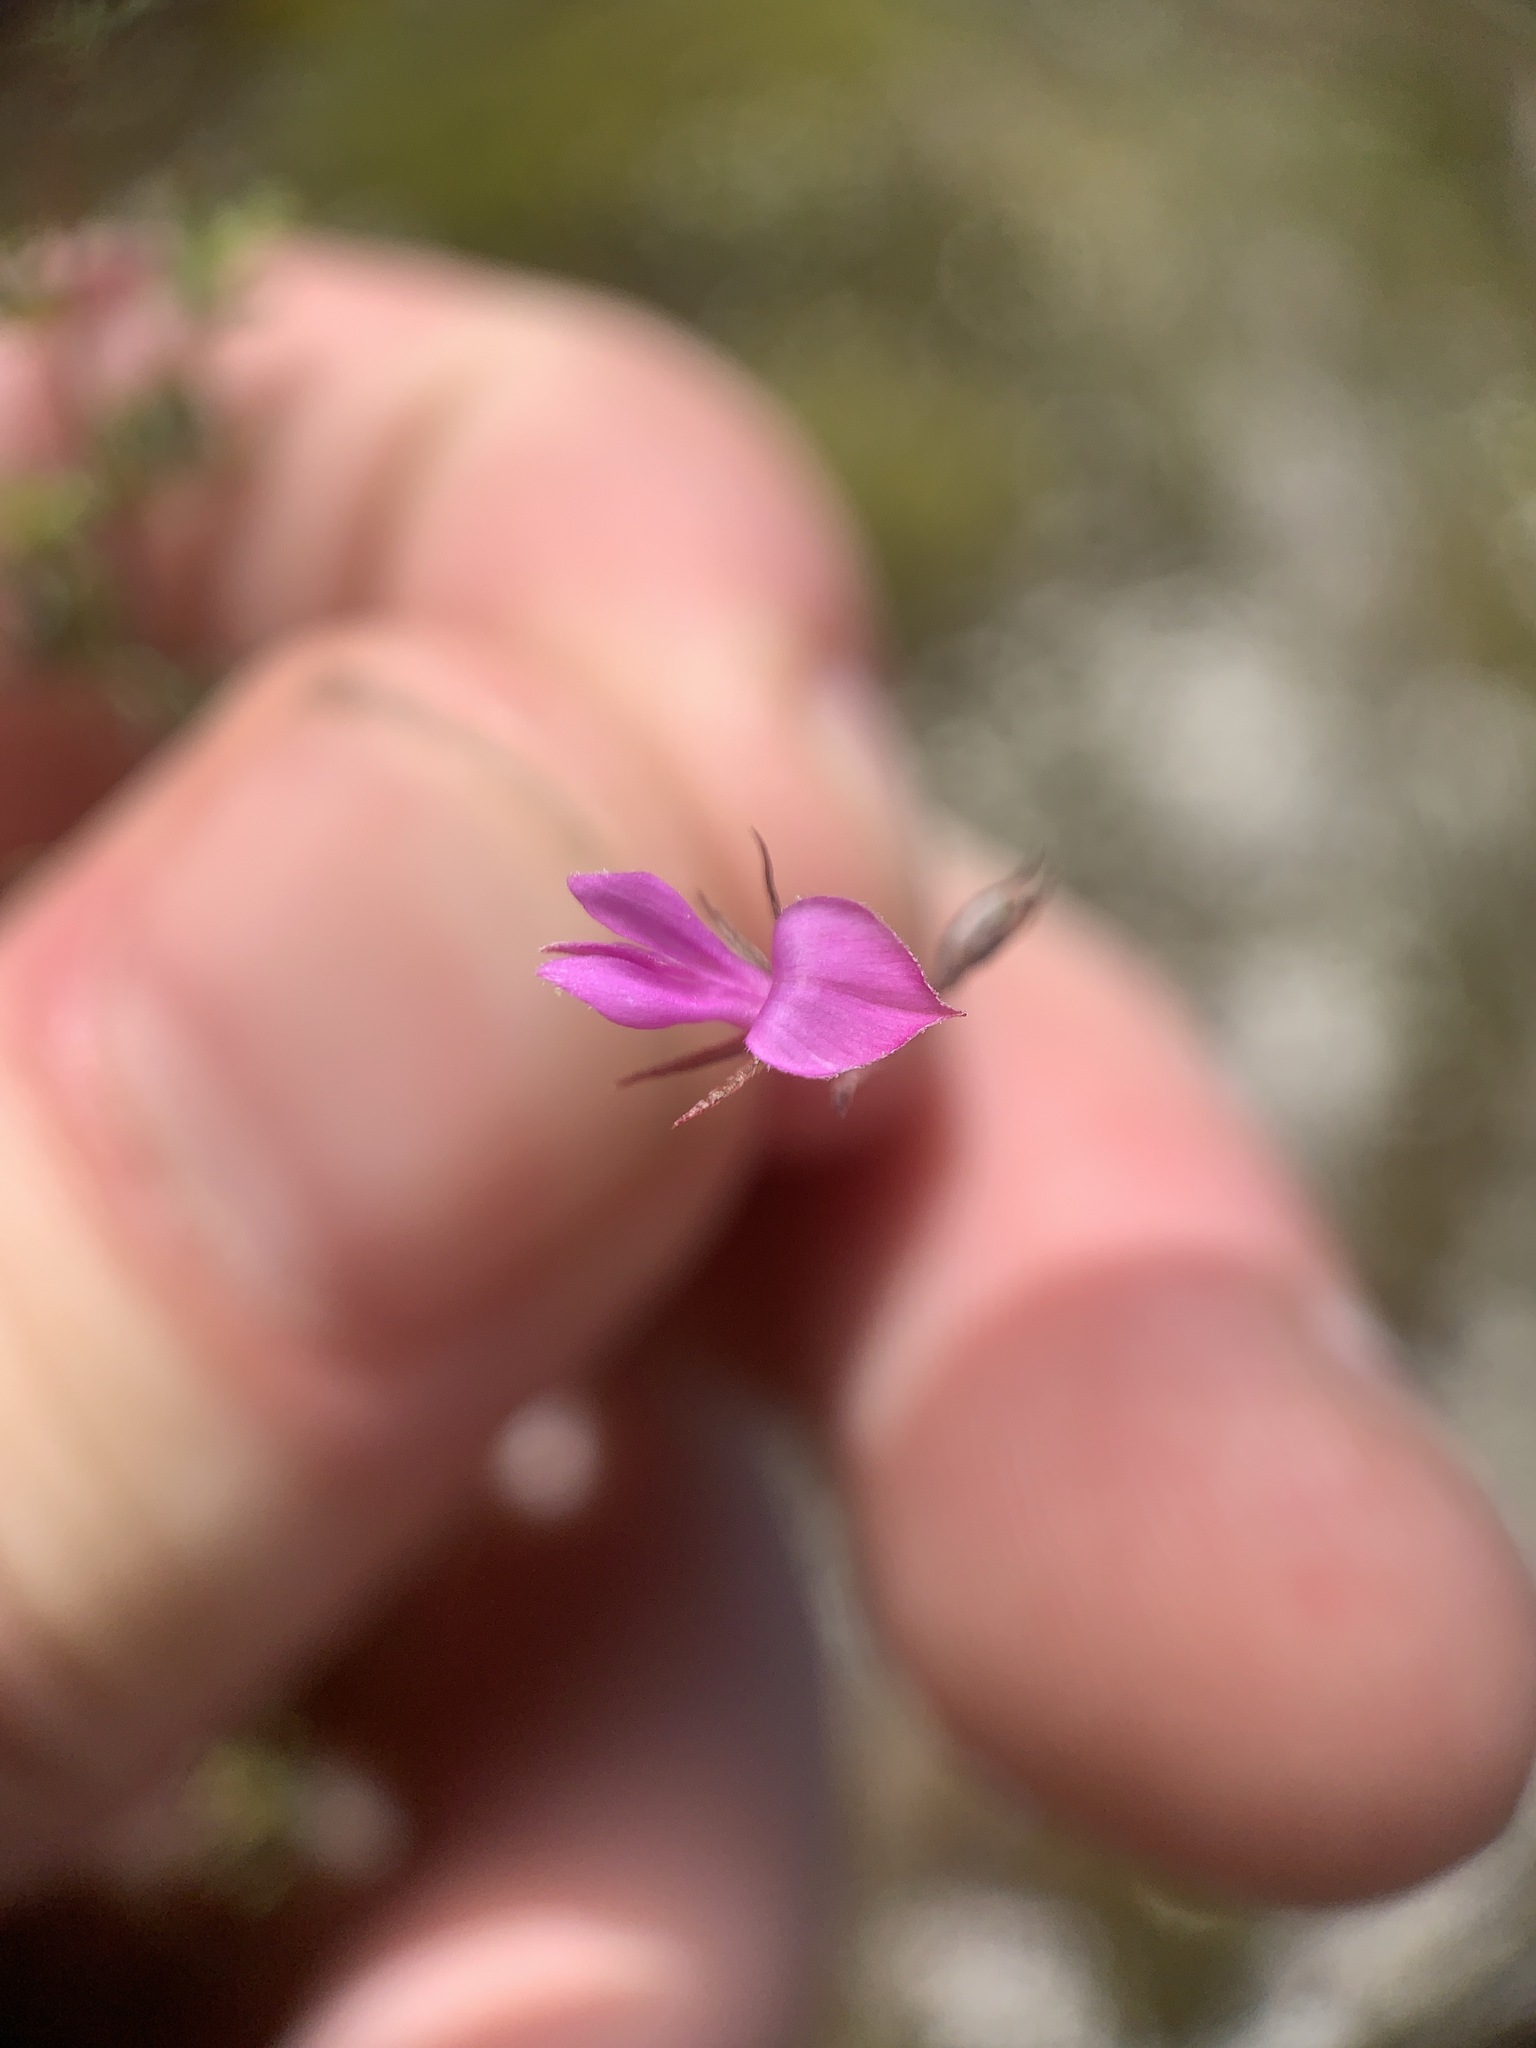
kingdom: Plantae
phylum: Tracheophyta
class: Magnoliopsida
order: Fabales
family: Fabaceae
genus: Indigofera
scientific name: Indigofera angustifolia
